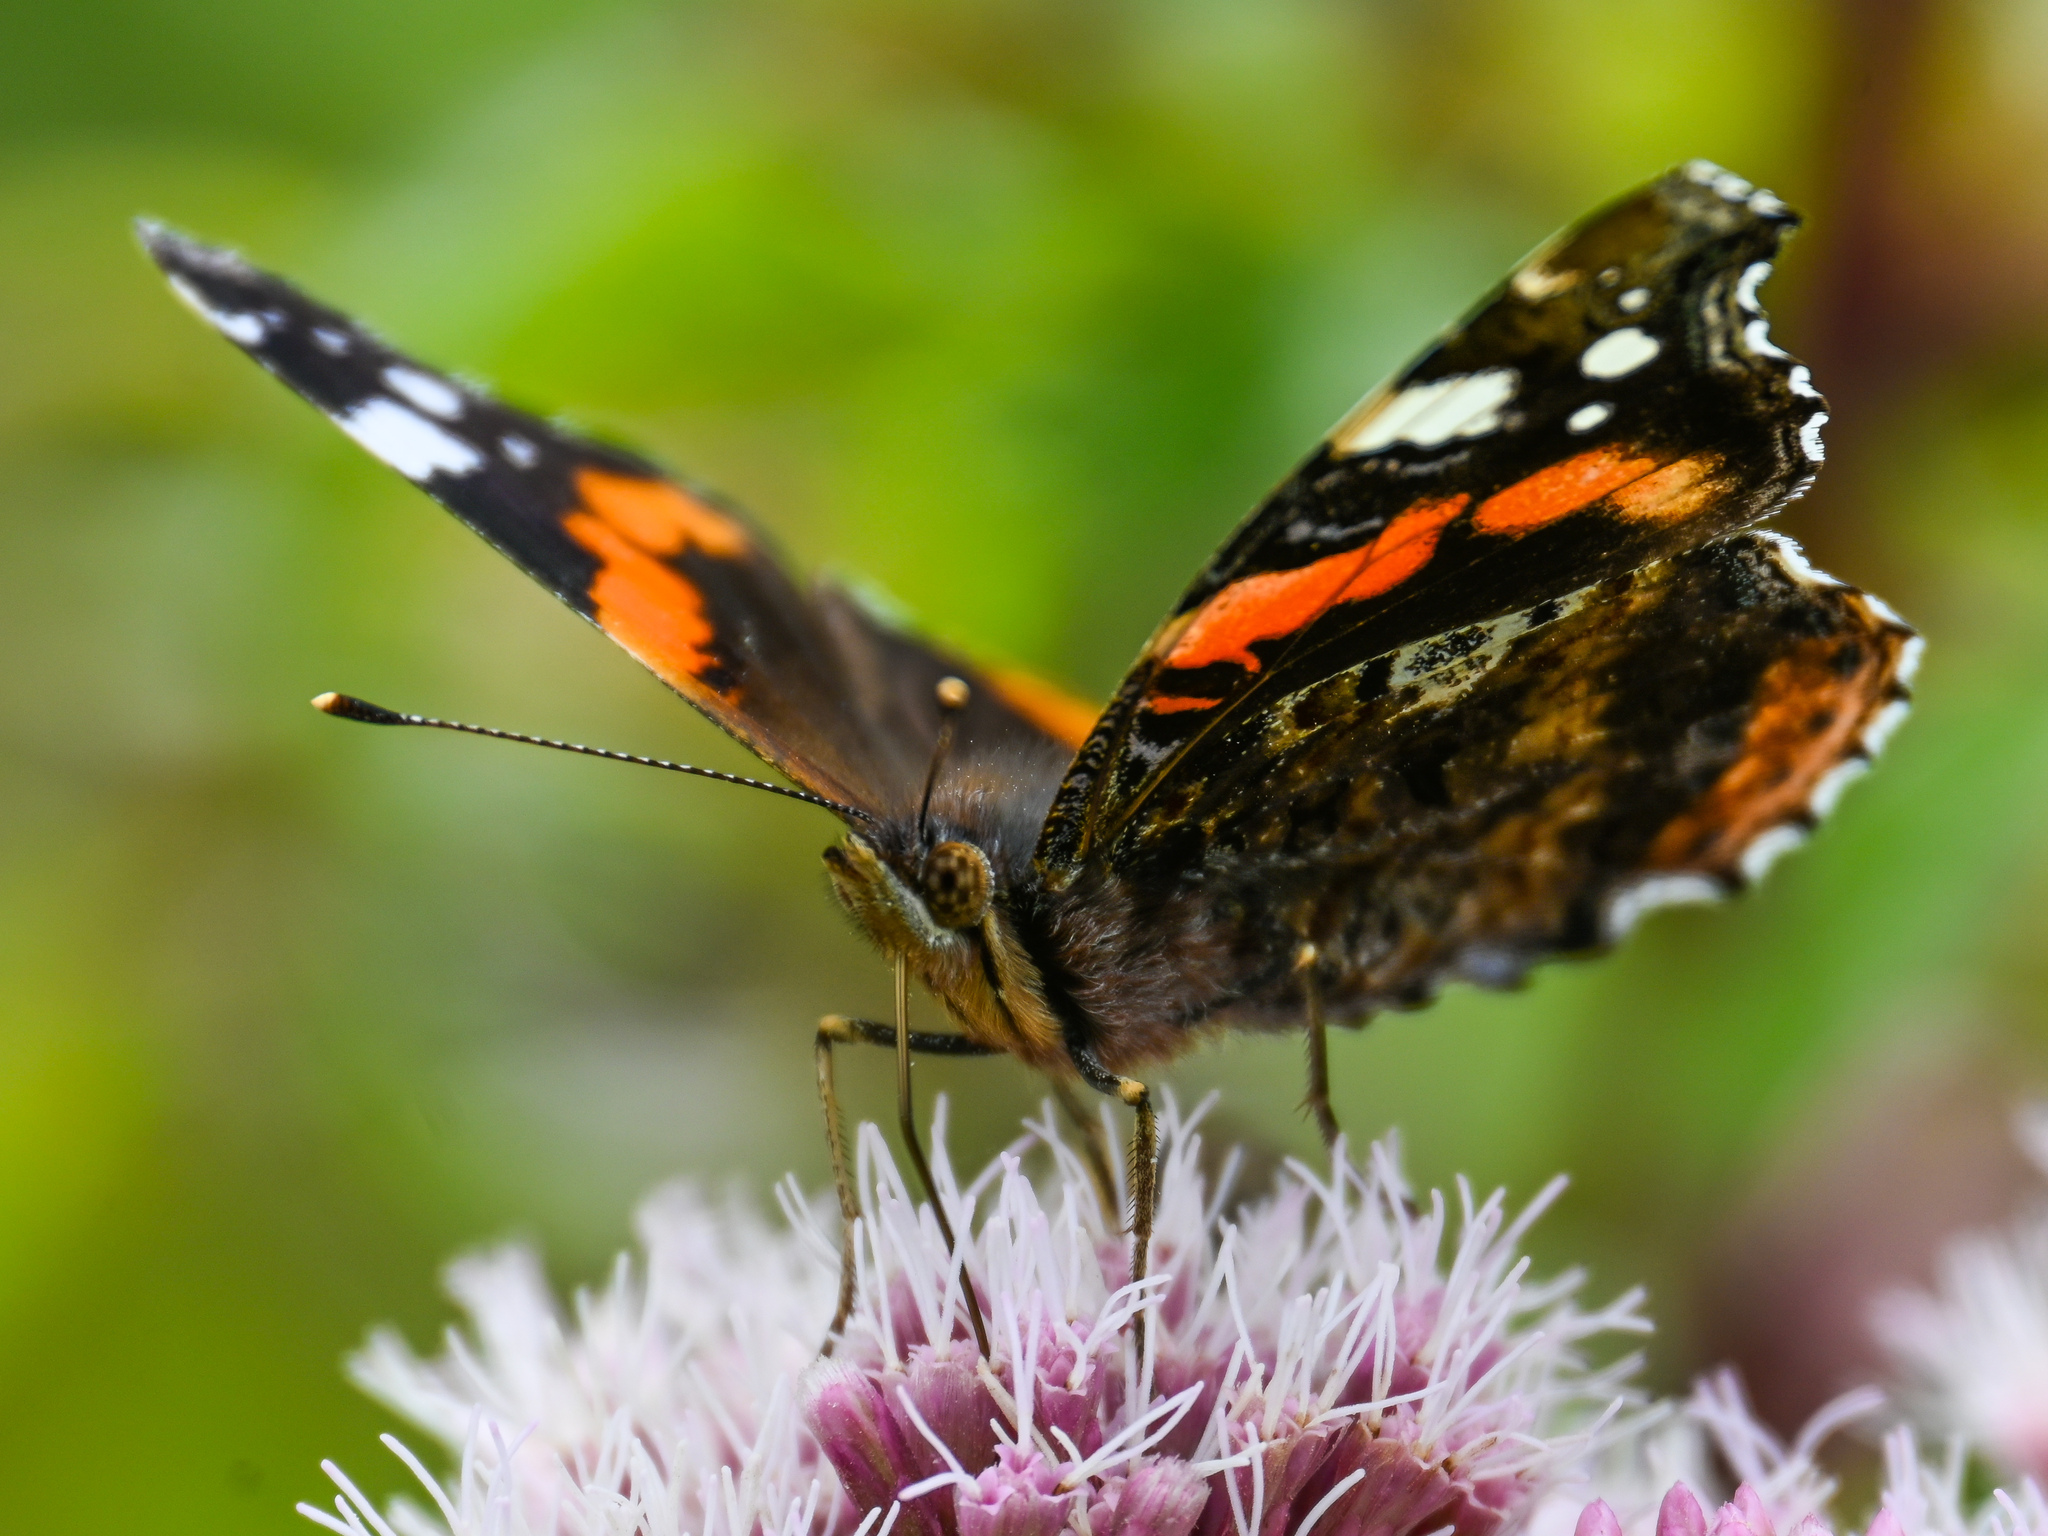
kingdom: Animalia
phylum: Arthropoda
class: Insecta
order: Lepidoptera
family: Nymphalidae
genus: Vanessa
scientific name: Vanessa atalanta
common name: Red admiral
